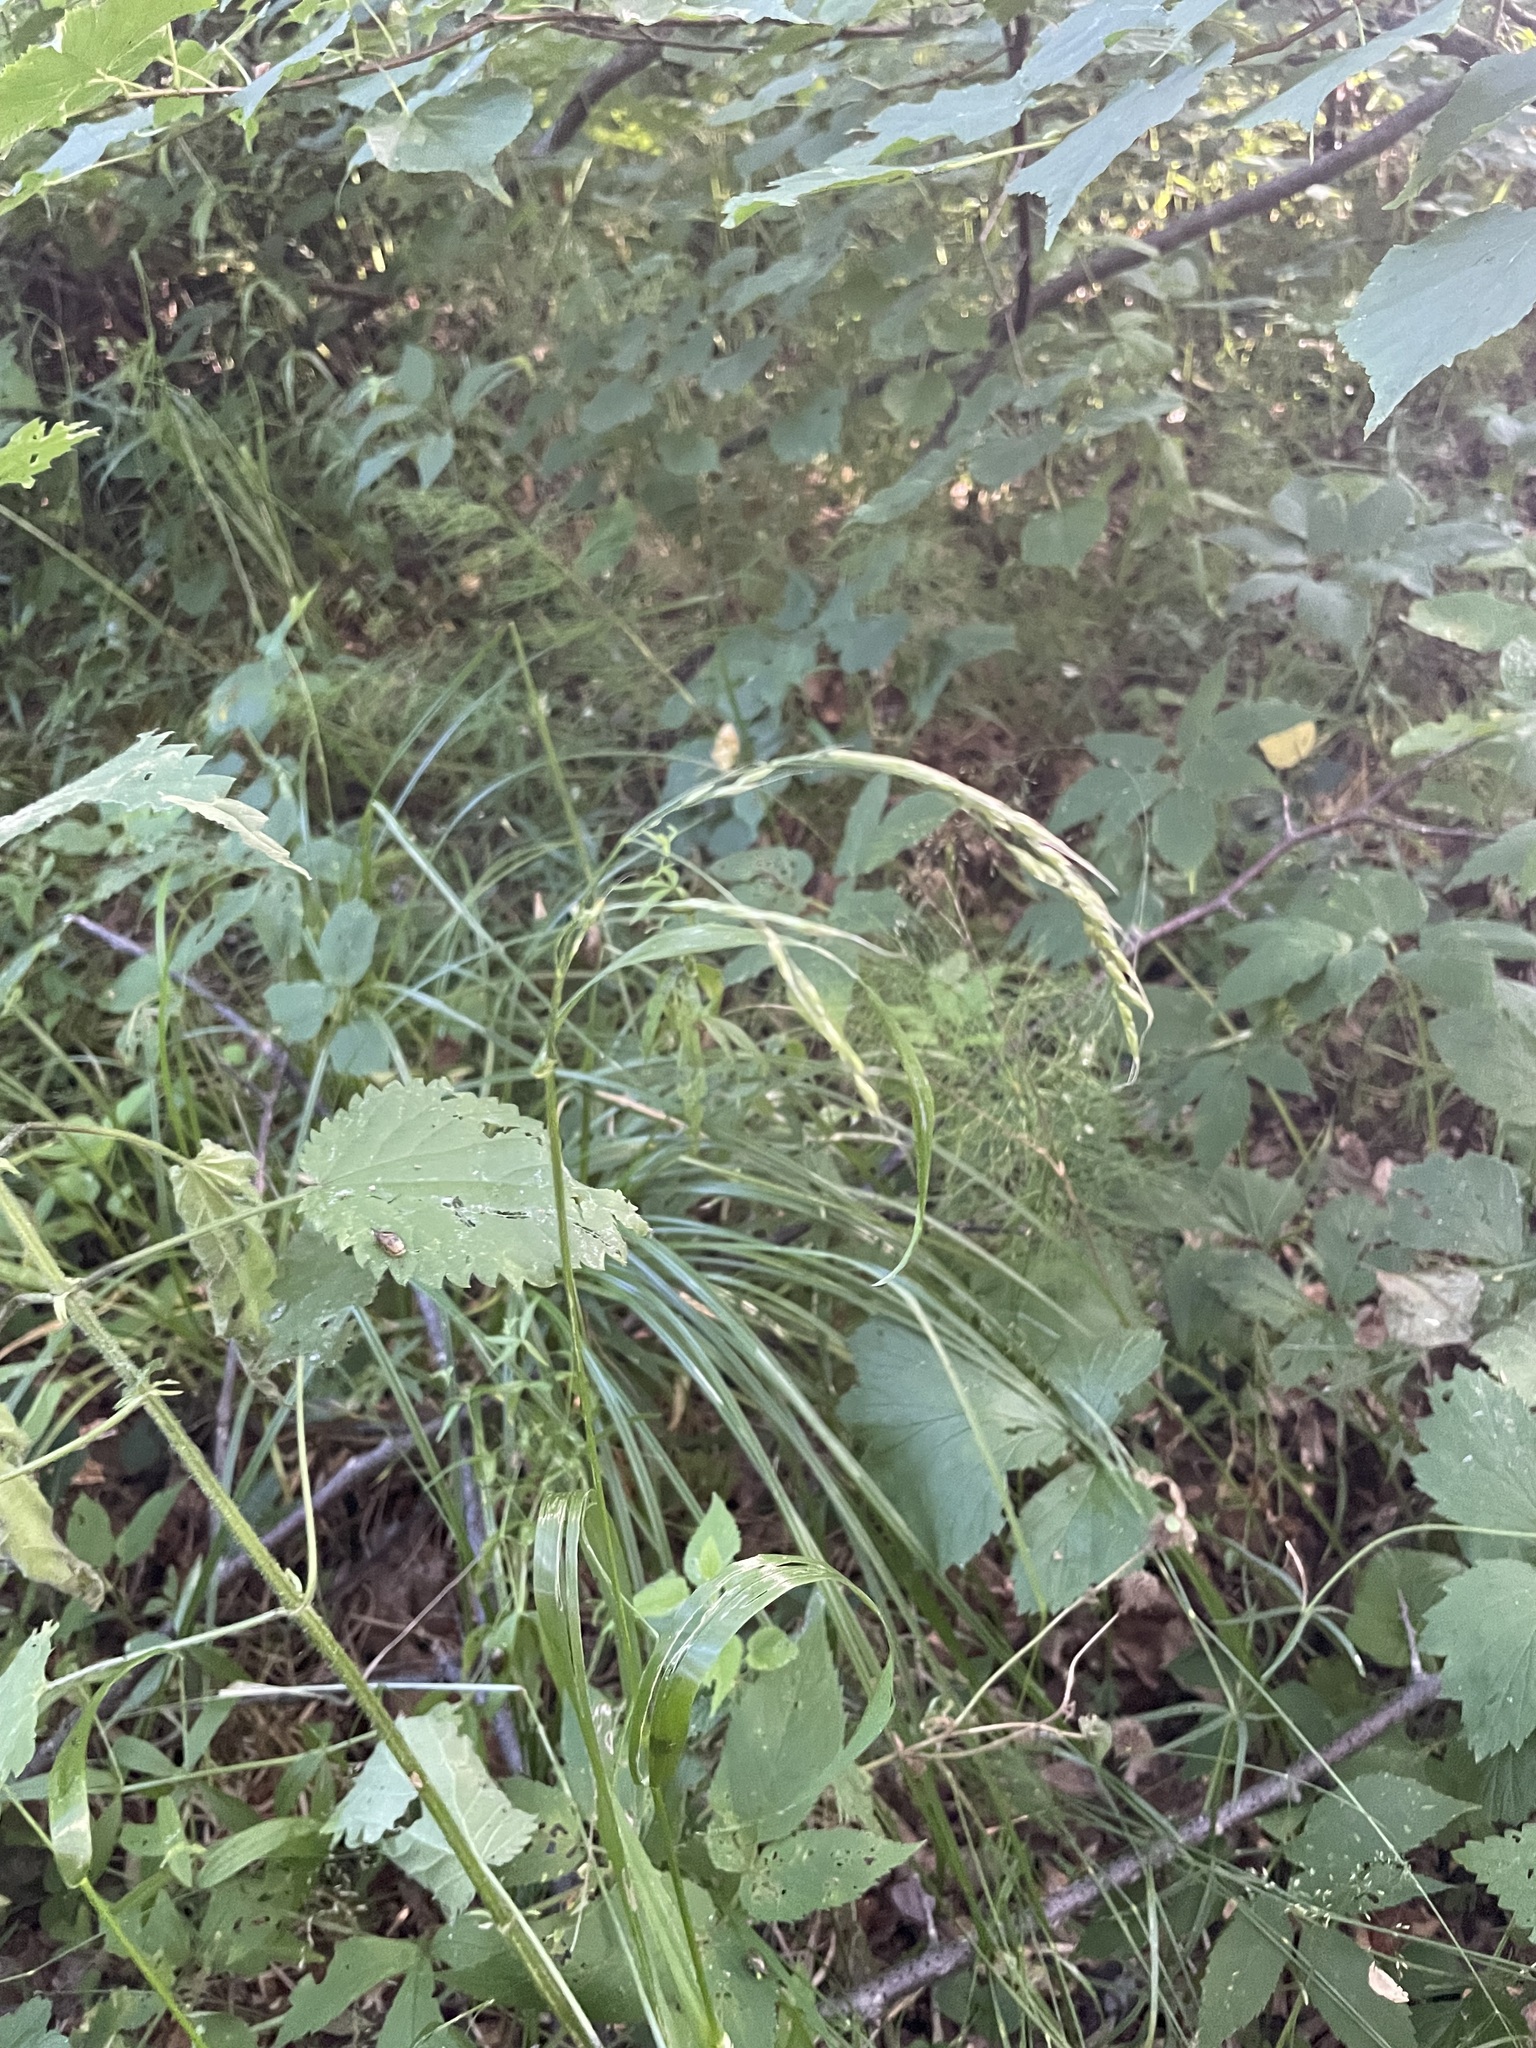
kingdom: Plantae
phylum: Tracheophyta
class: Liliopsida
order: Poales
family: Poaceae
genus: Lolium
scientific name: Lolium giganteum
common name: Giant fescue
